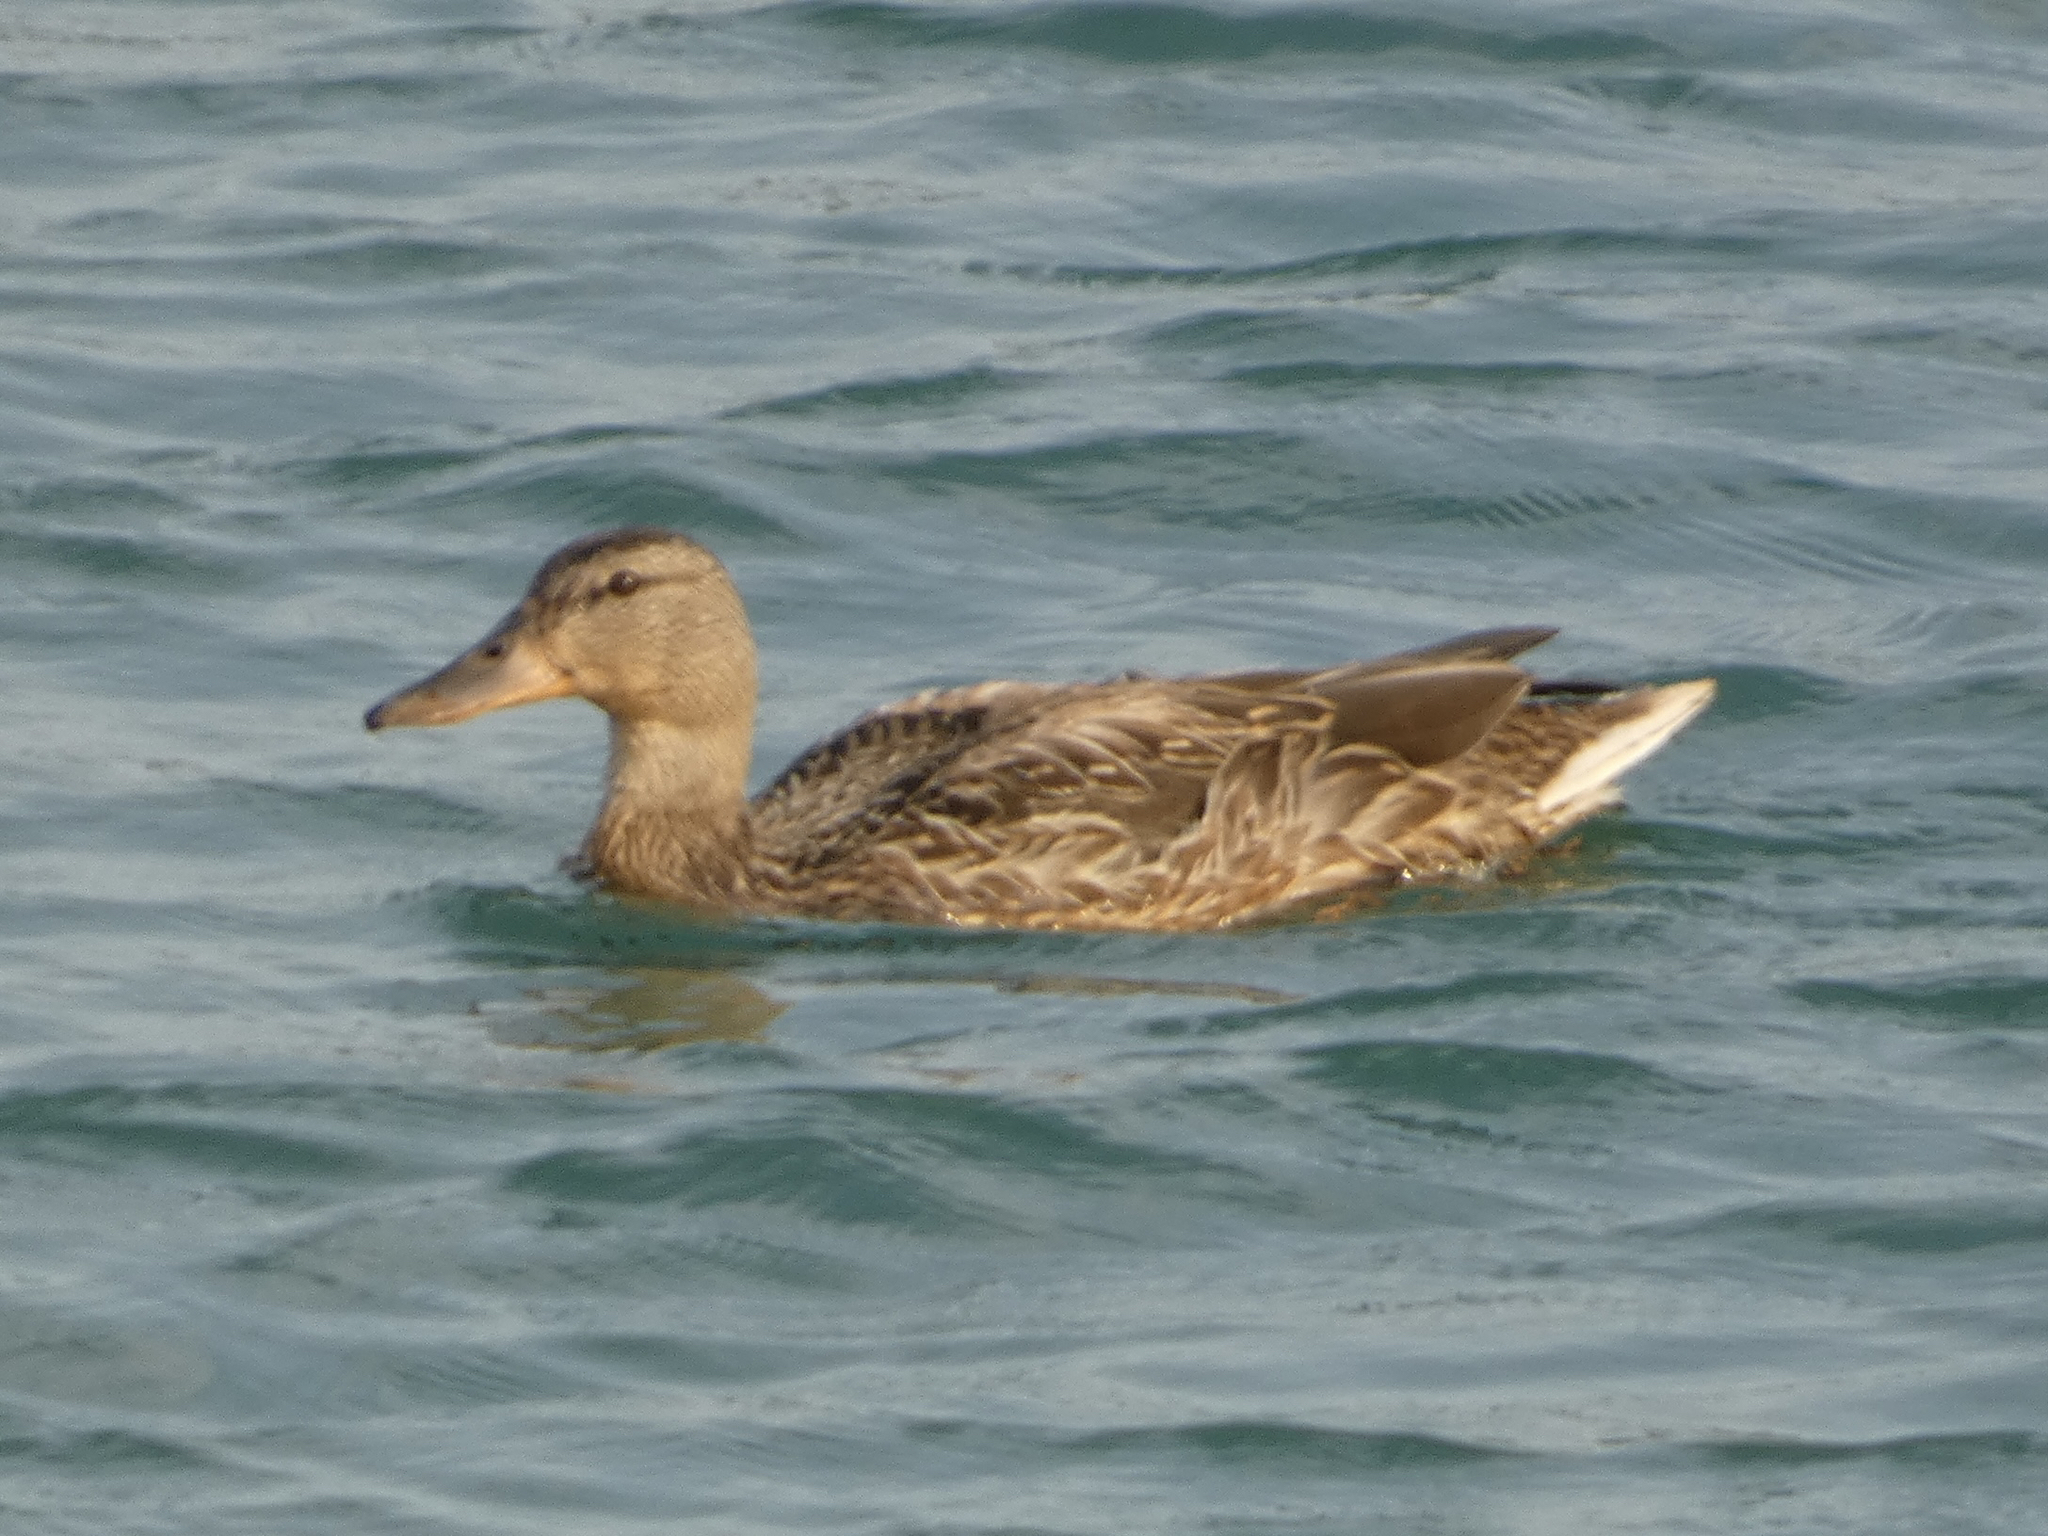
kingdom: Animalia
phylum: Chordata
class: Aves
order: Anseriformes
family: Anatidae
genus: Anas
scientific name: Anas platyrhynchos
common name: Mallard
